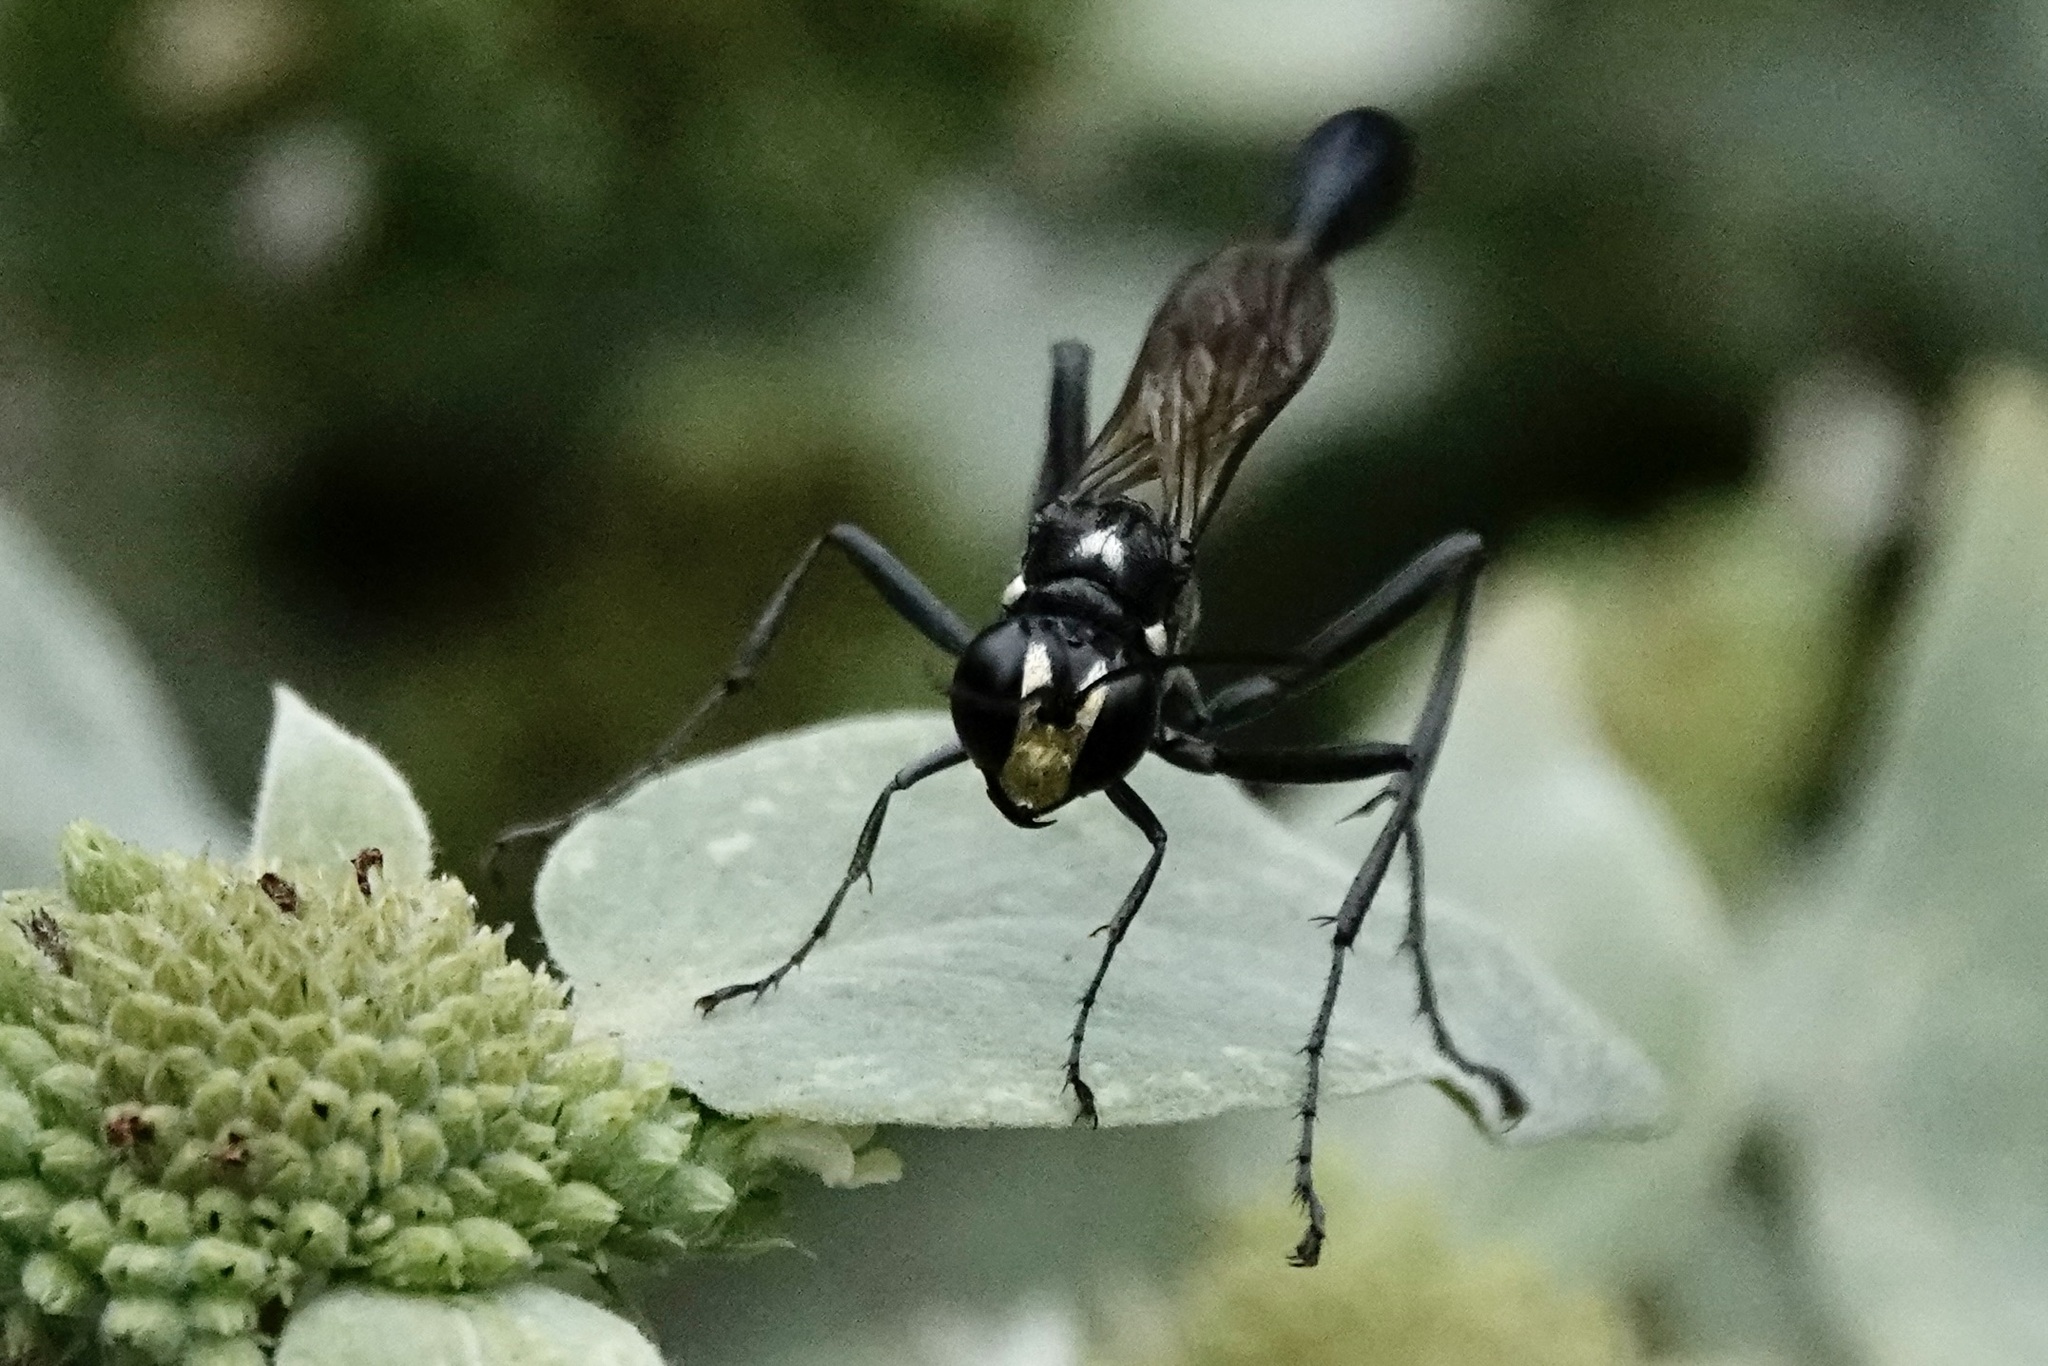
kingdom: Animalia
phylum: Arthropoda
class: Insecta
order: Hymenoptera
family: Sphecidae
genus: Eremnophila
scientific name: Eremnophila aureonotata
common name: Gold-marked thread-waisted wasp
